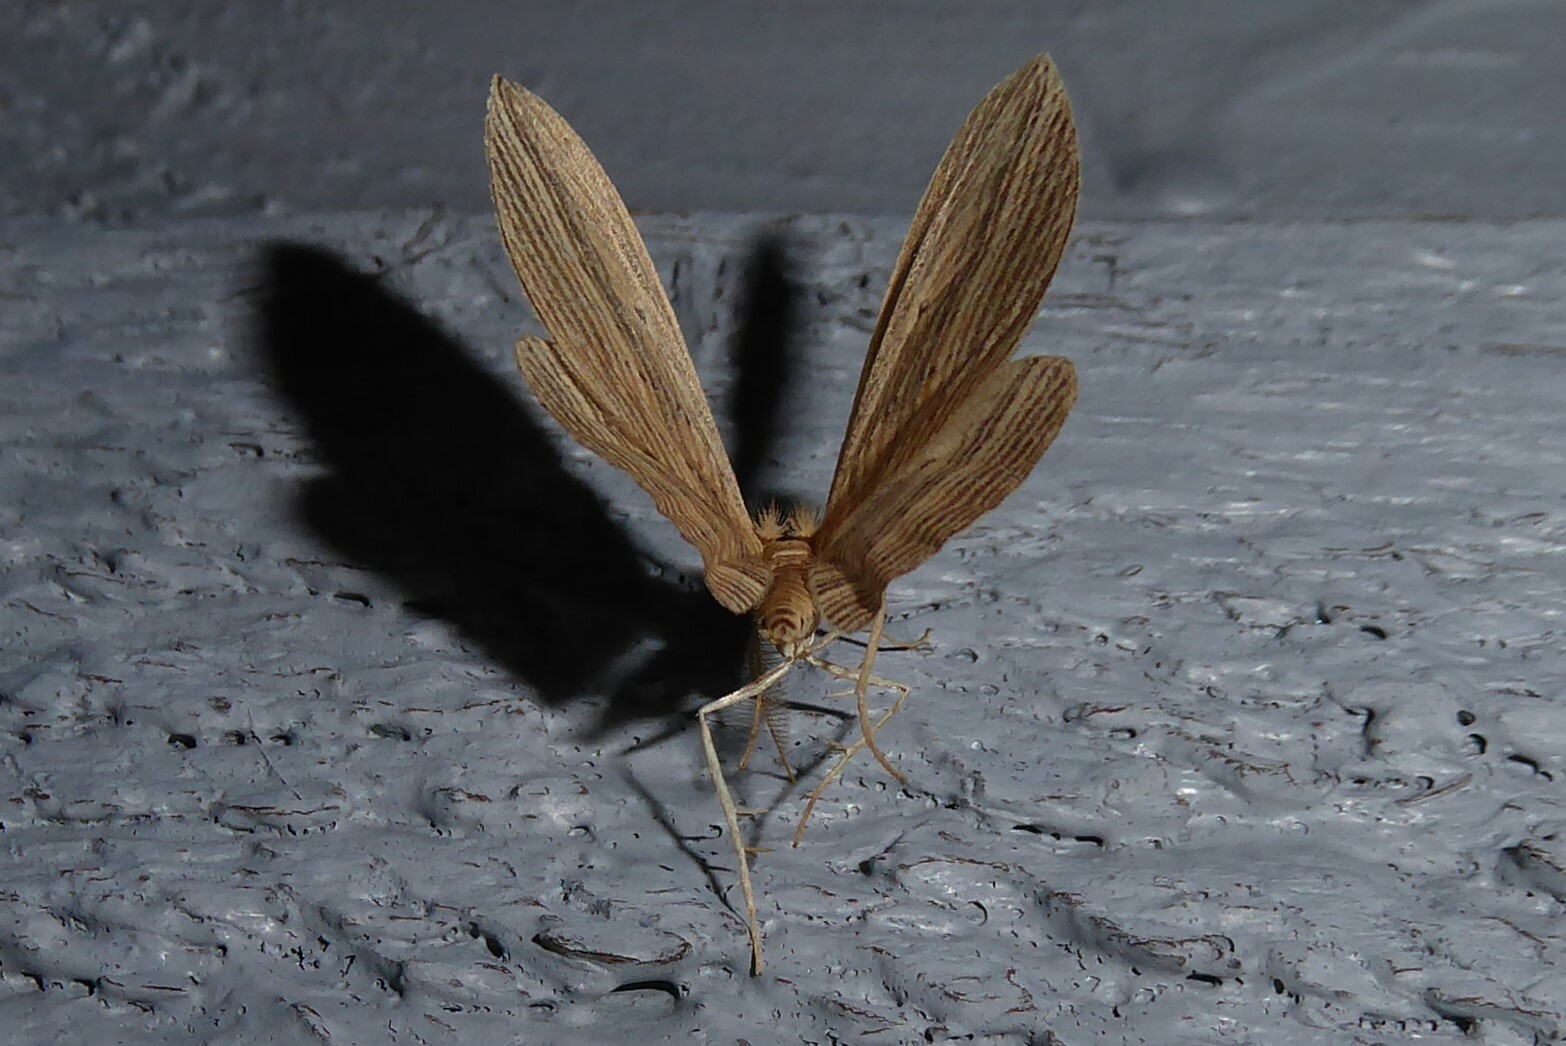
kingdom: Animalia
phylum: Arthropoda
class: Insecta
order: Lepidoptera
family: Geometridae
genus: Epiphryne
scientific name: Epiphryne verriculata
